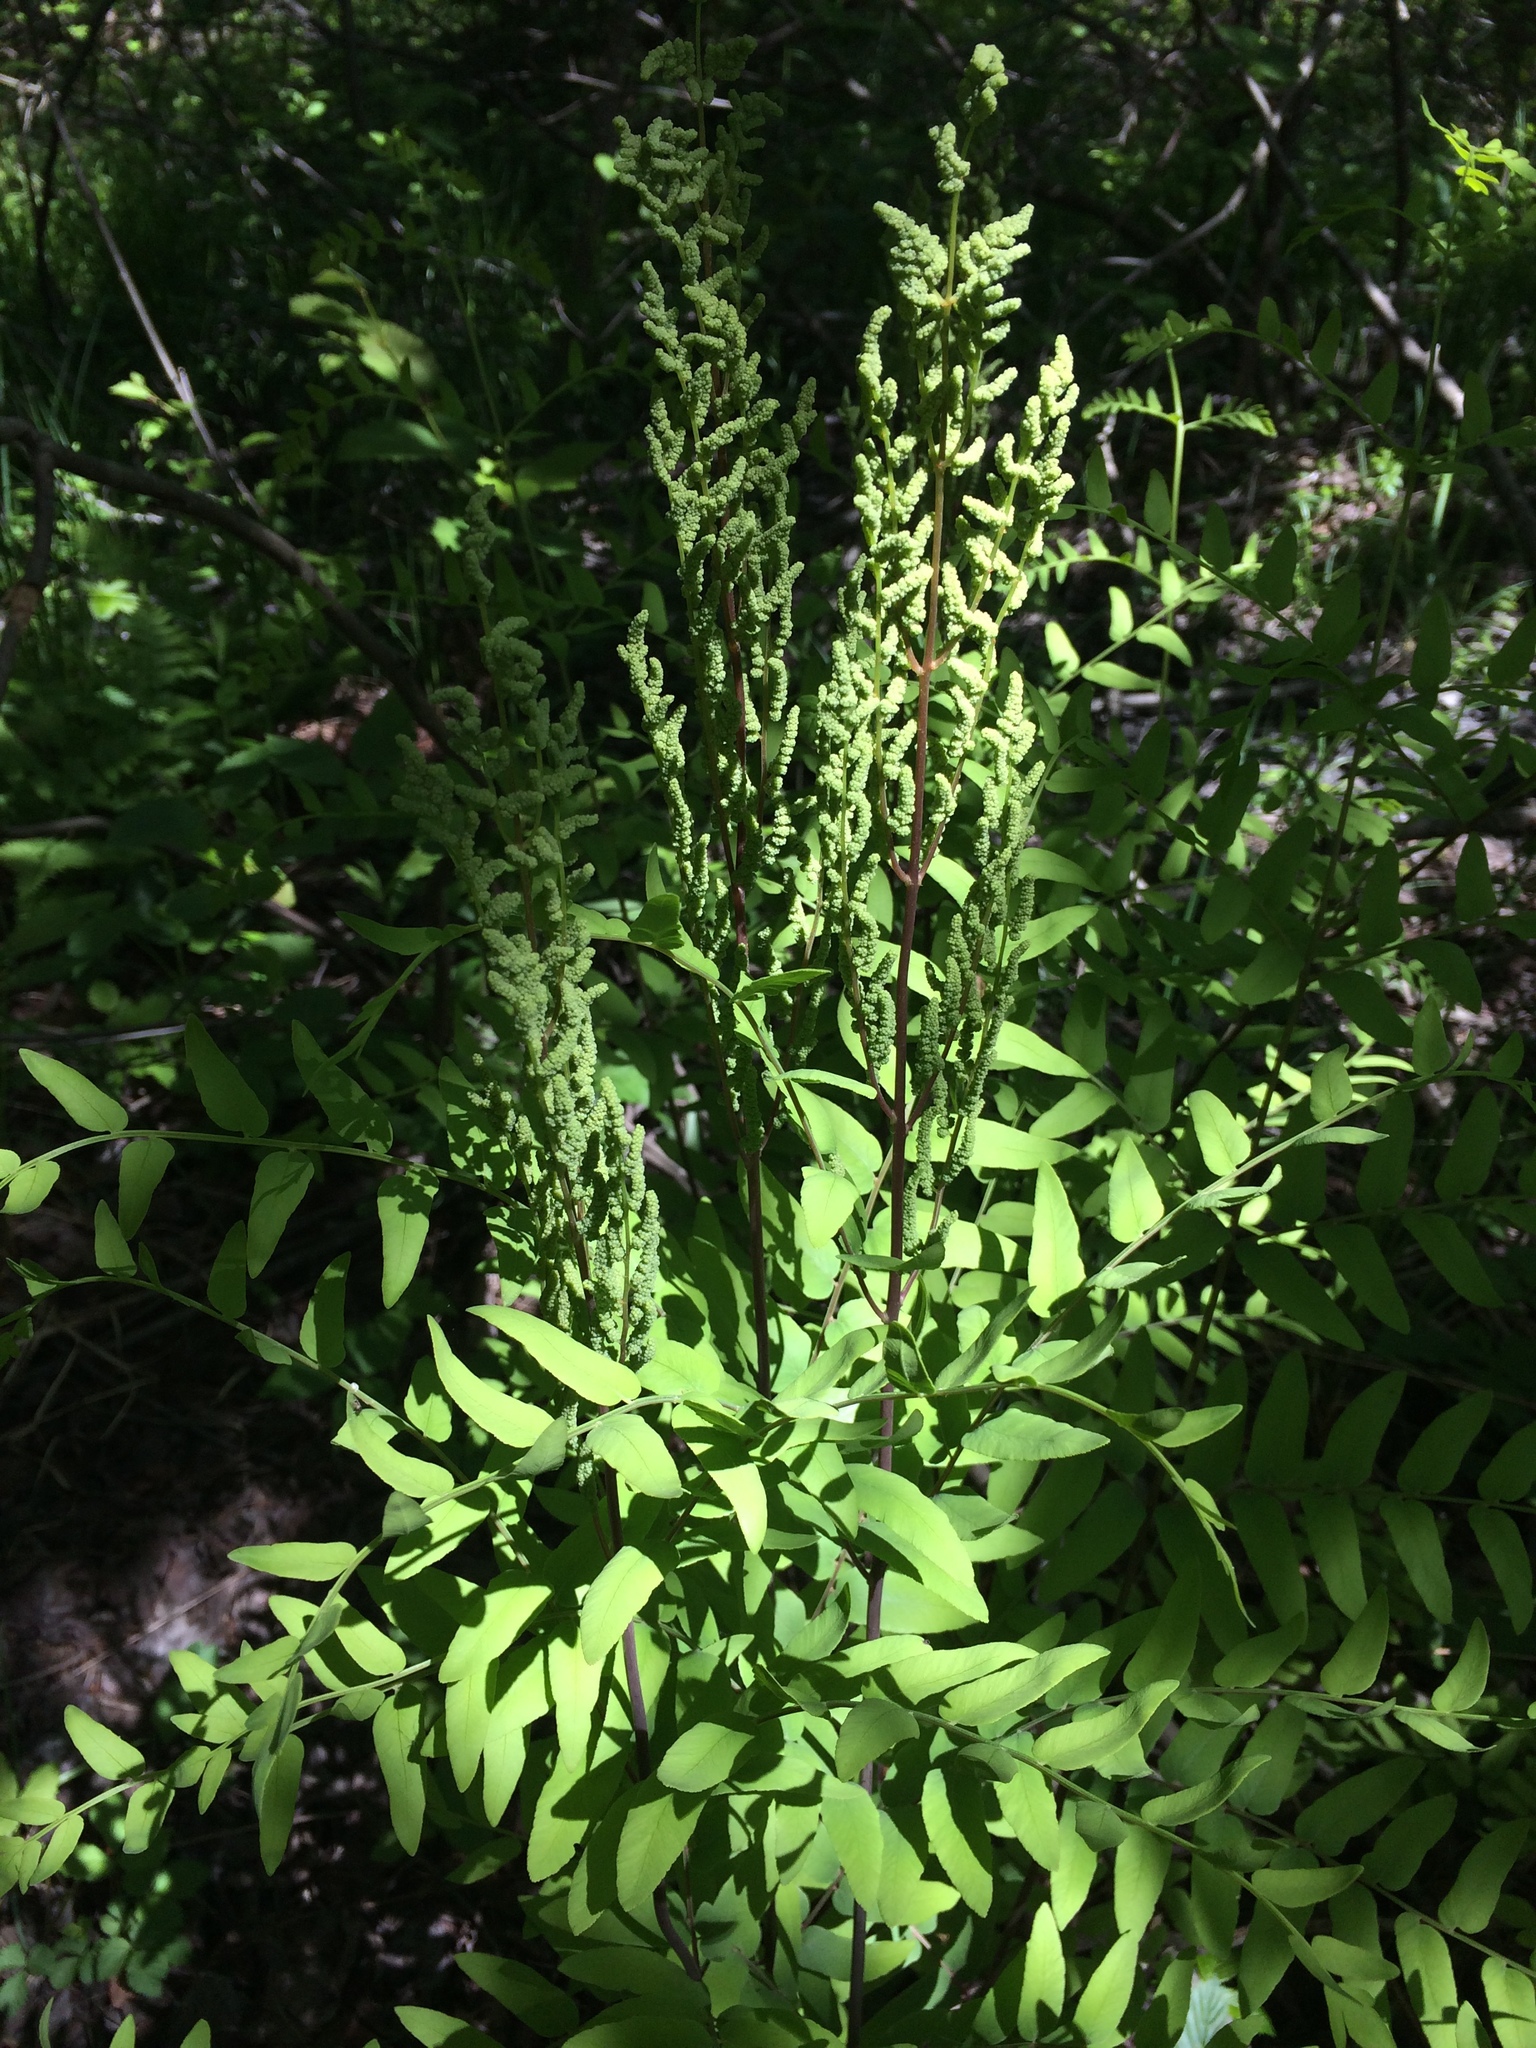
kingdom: Plantae
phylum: Tracheophyta
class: Polypodiopsida
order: Osmundales
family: Osmundaceae
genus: Osmunda
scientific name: Osmunda spectabilis
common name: American royal fern
